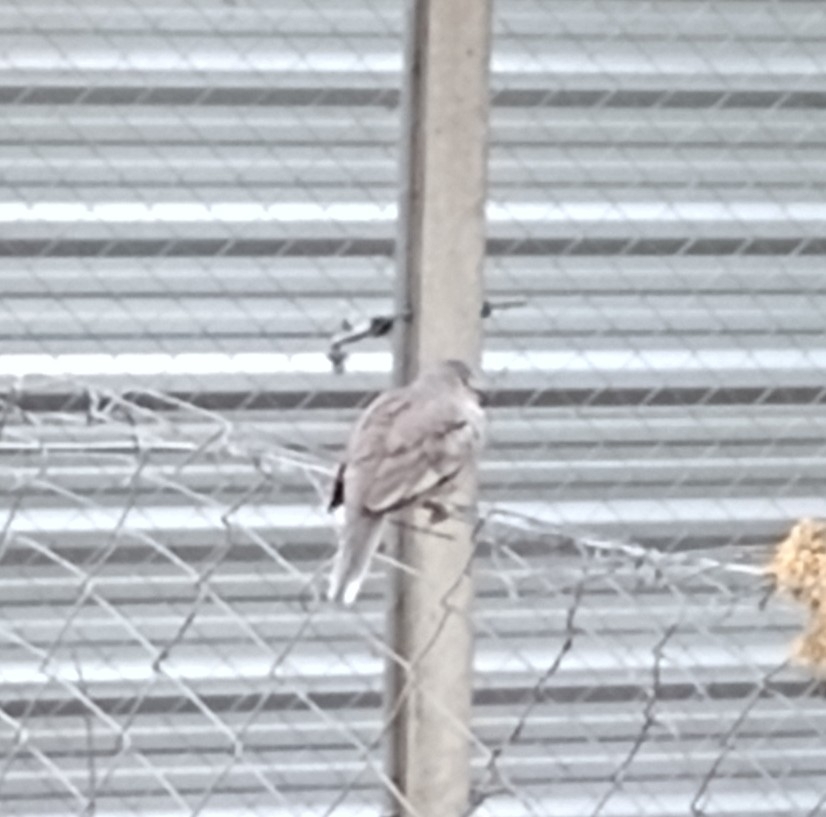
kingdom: Animalia
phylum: Chordata
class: Aves
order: Columbiformes
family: Columbidae
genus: Columbina
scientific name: Columbina picui
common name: Picui ground dove
